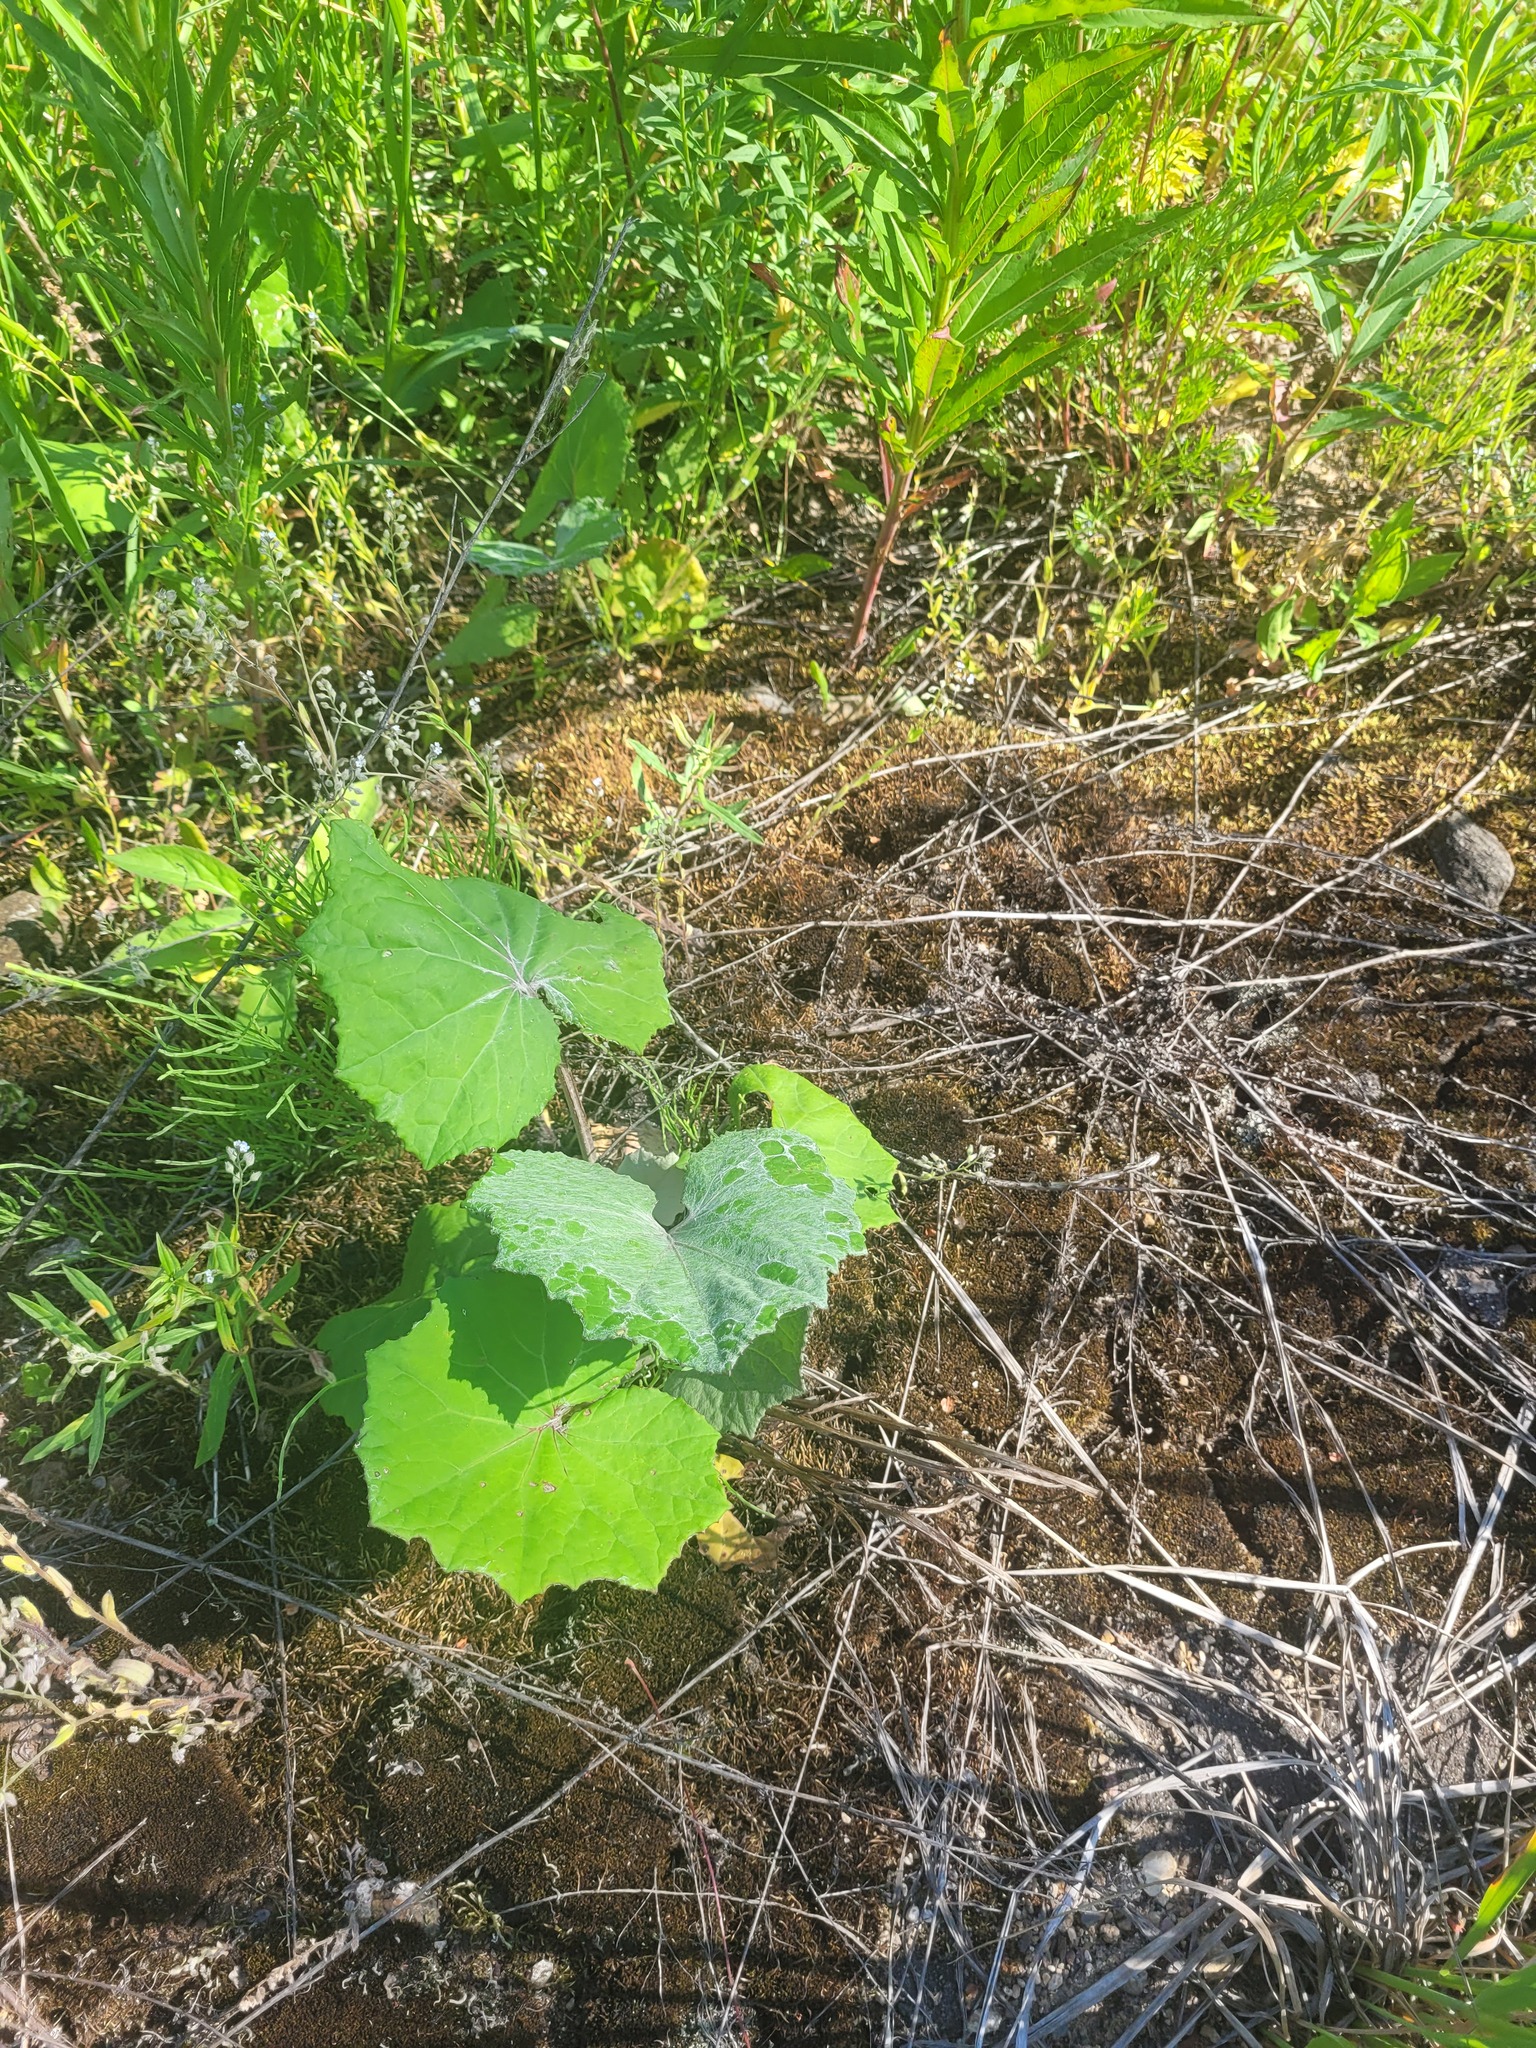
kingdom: Plantae
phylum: Tracheophyta
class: Magnoliopsida
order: Asterales
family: Asteraceae
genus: Tussilago
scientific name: Tussilago farfara
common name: Coltsfoot
